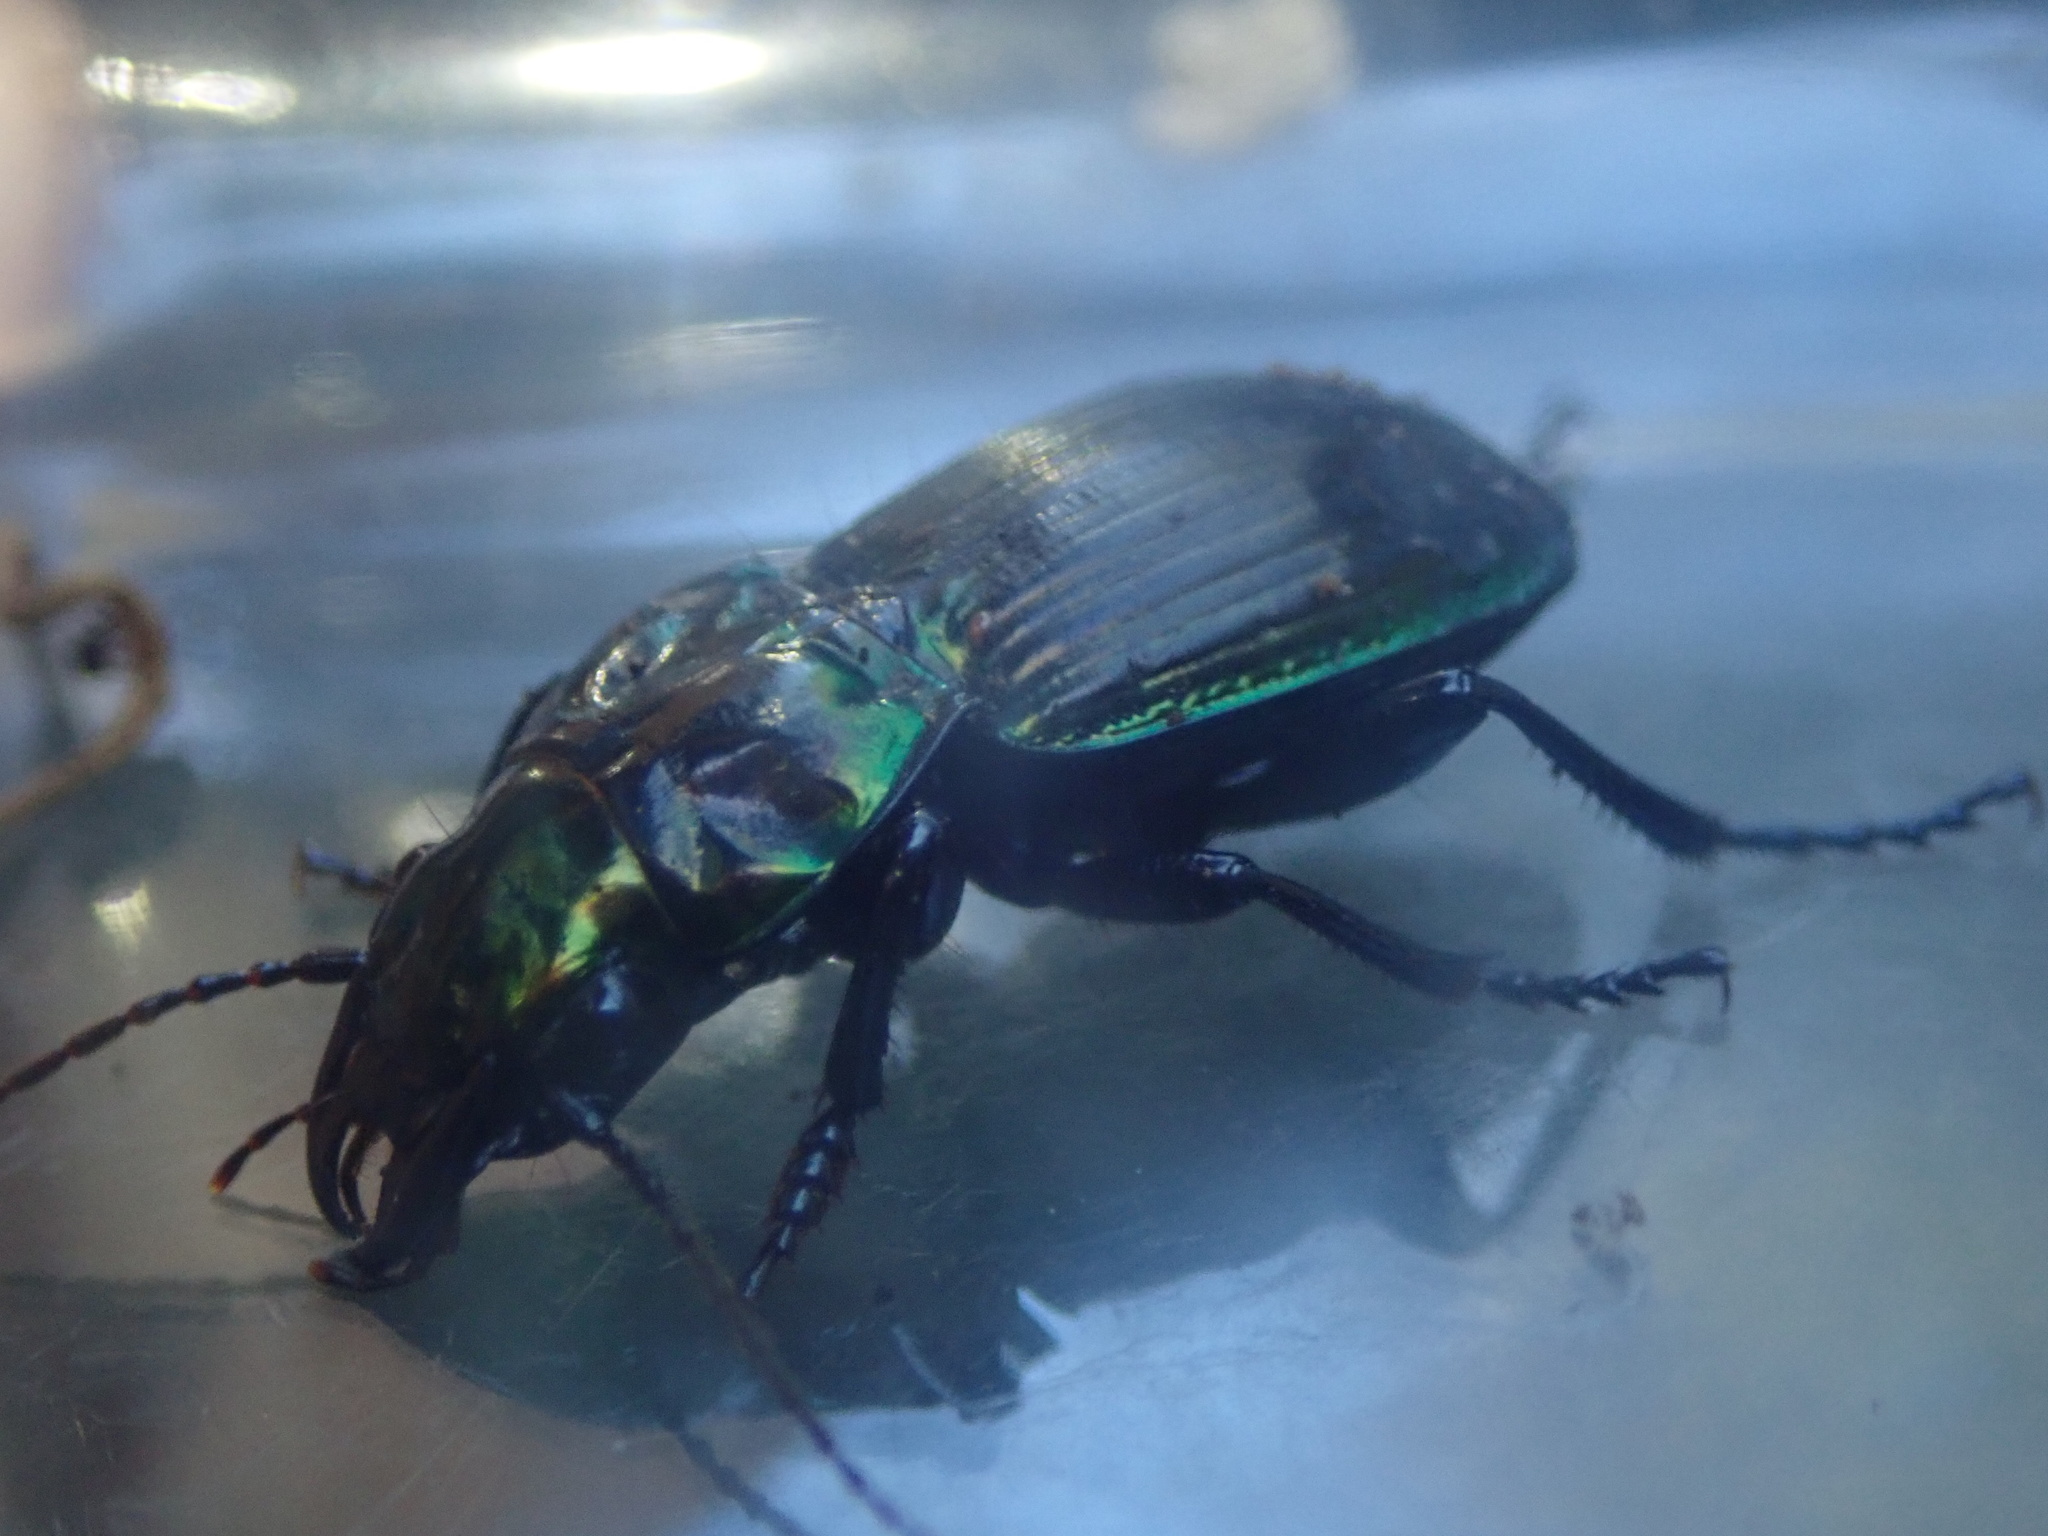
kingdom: Animalia
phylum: Arthropoda
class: Insecta
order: Coleoptera
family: Carabidae
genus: Megadromus
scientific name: Megadromus antarcticus
